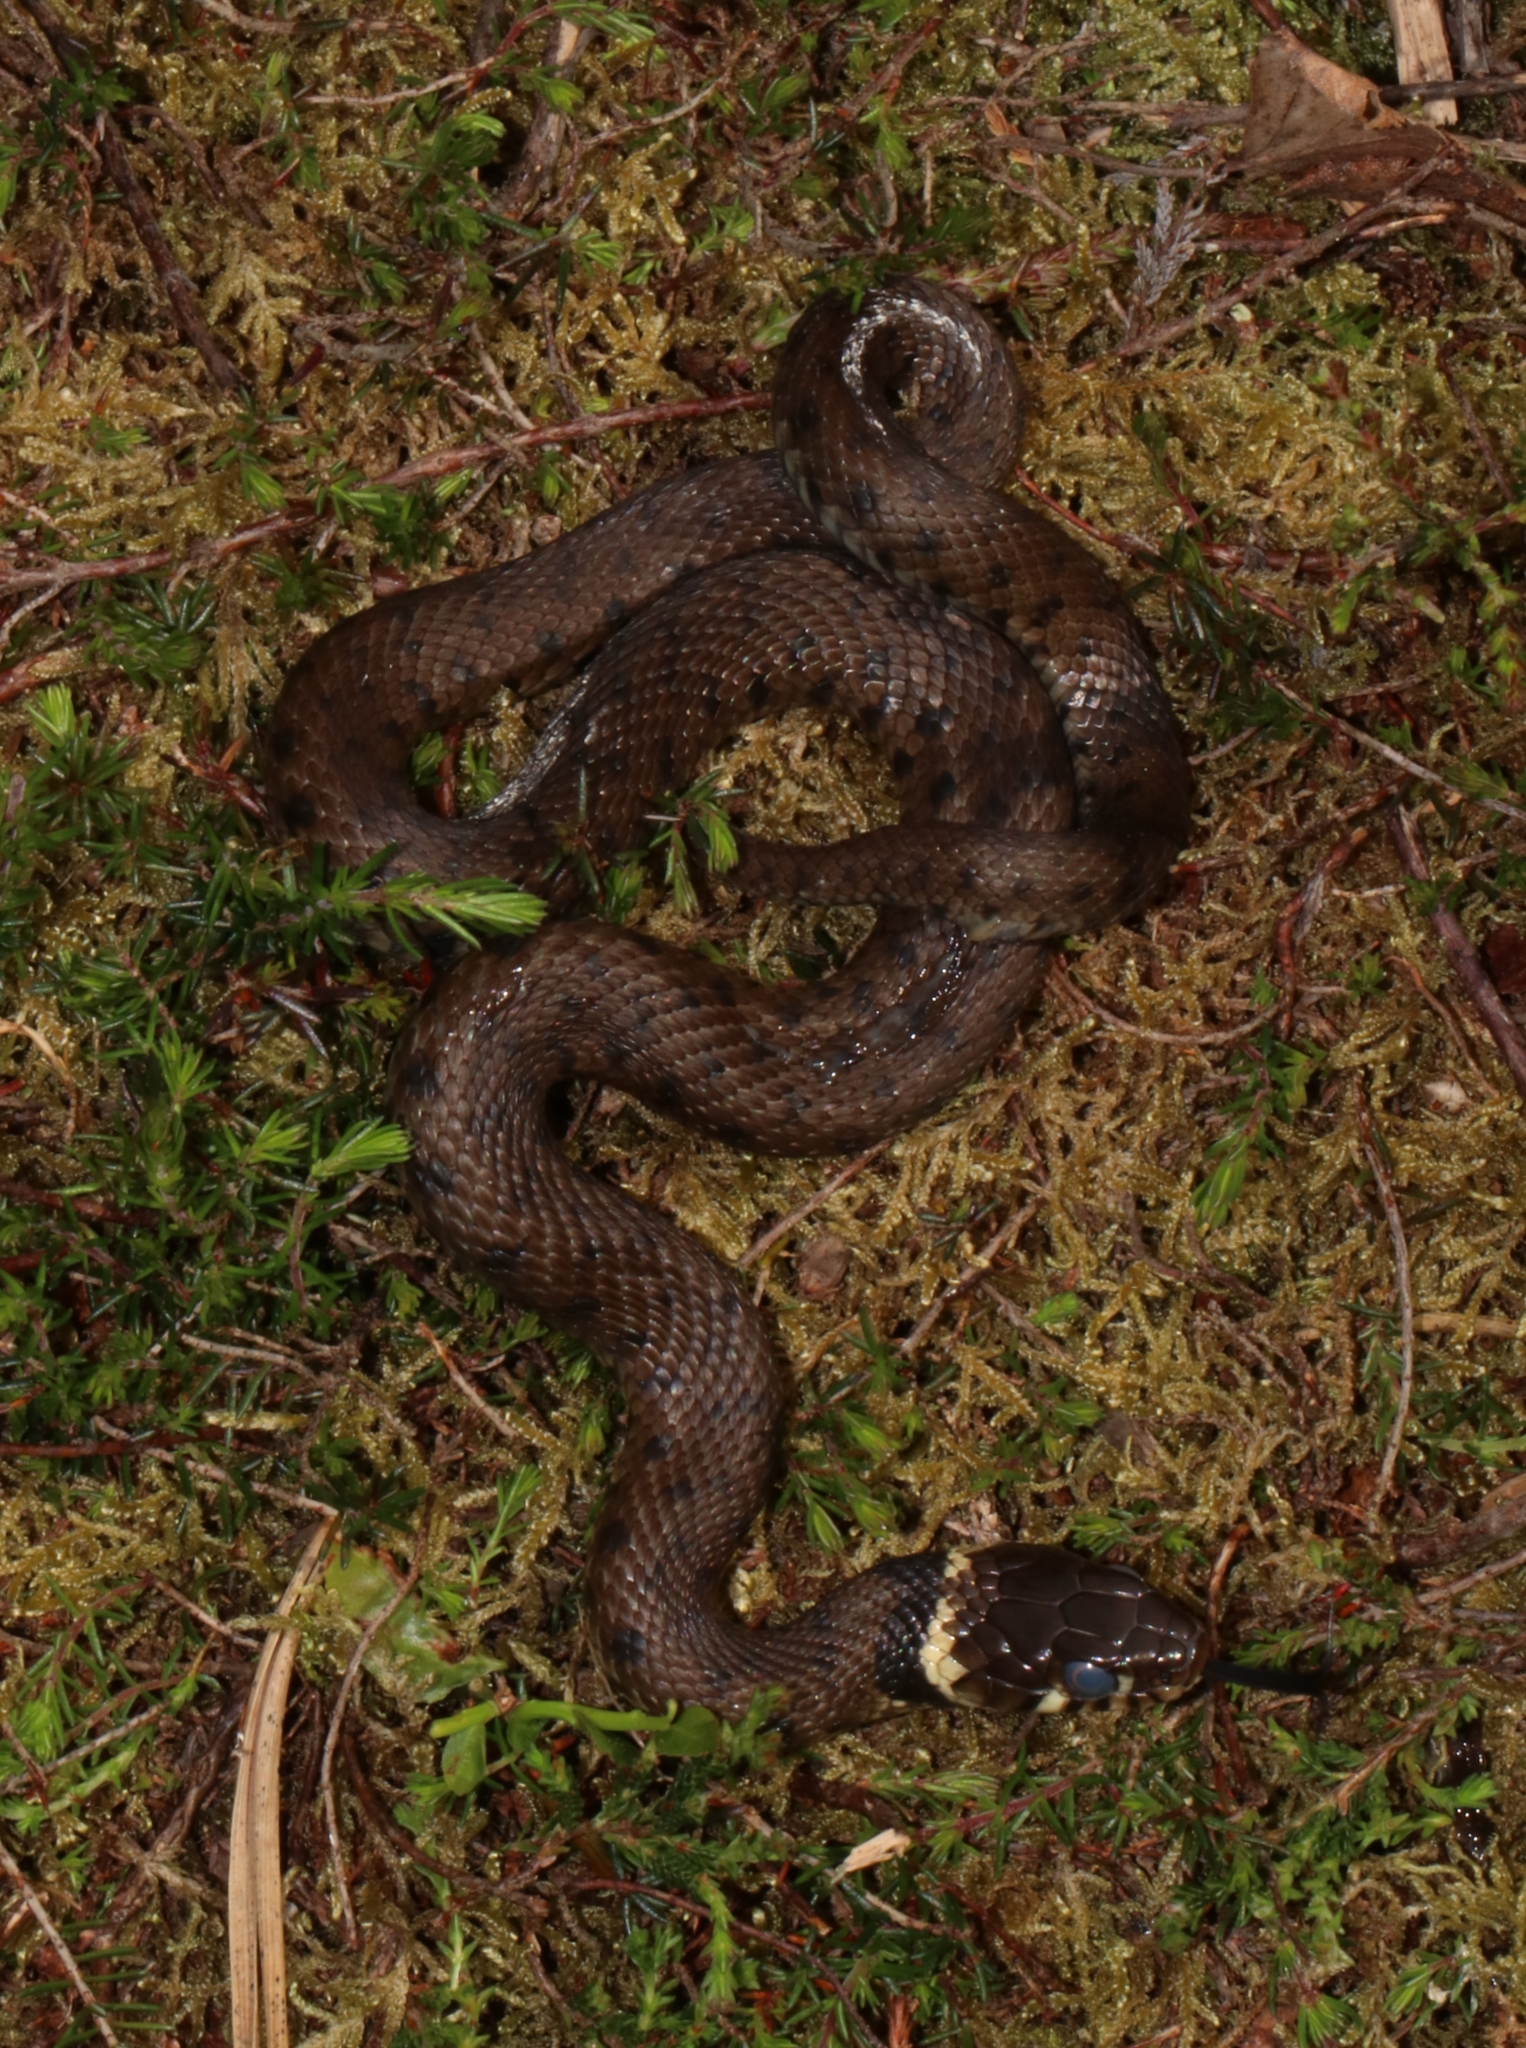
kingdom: Animalia
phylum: Chordata
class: Squamata
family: Colubridae
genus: Natrix
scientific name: Natrix helvetica
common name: Banded grass snake
